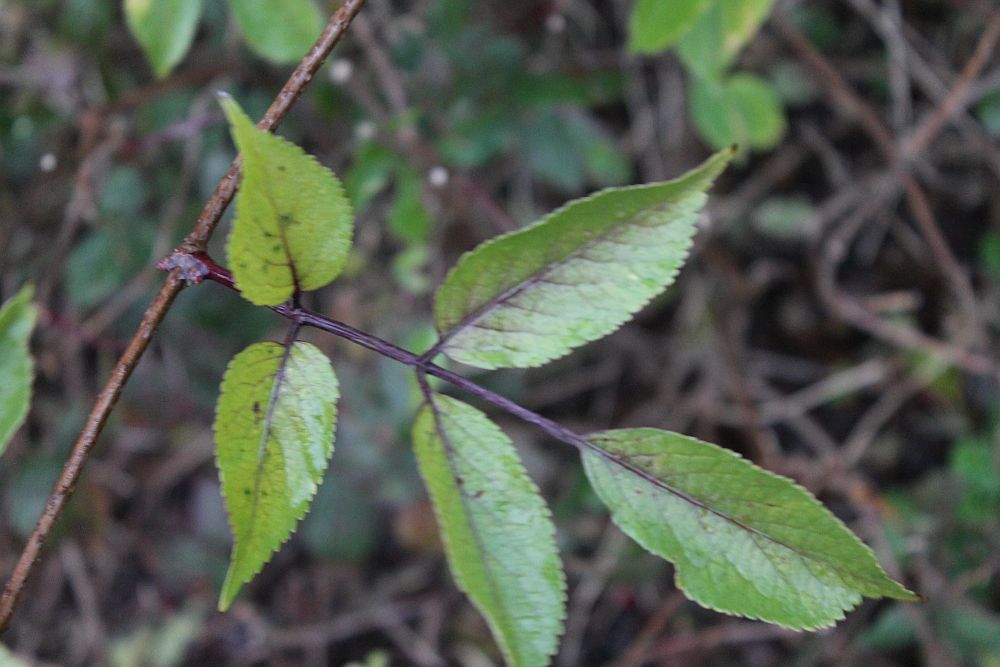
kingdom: Plantae
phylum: Tracheophyta
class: Magnoliopsida
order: Dipsacales
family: Viburnaceae
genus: Sambucus
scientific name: Sambucus nigra
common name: Elder
